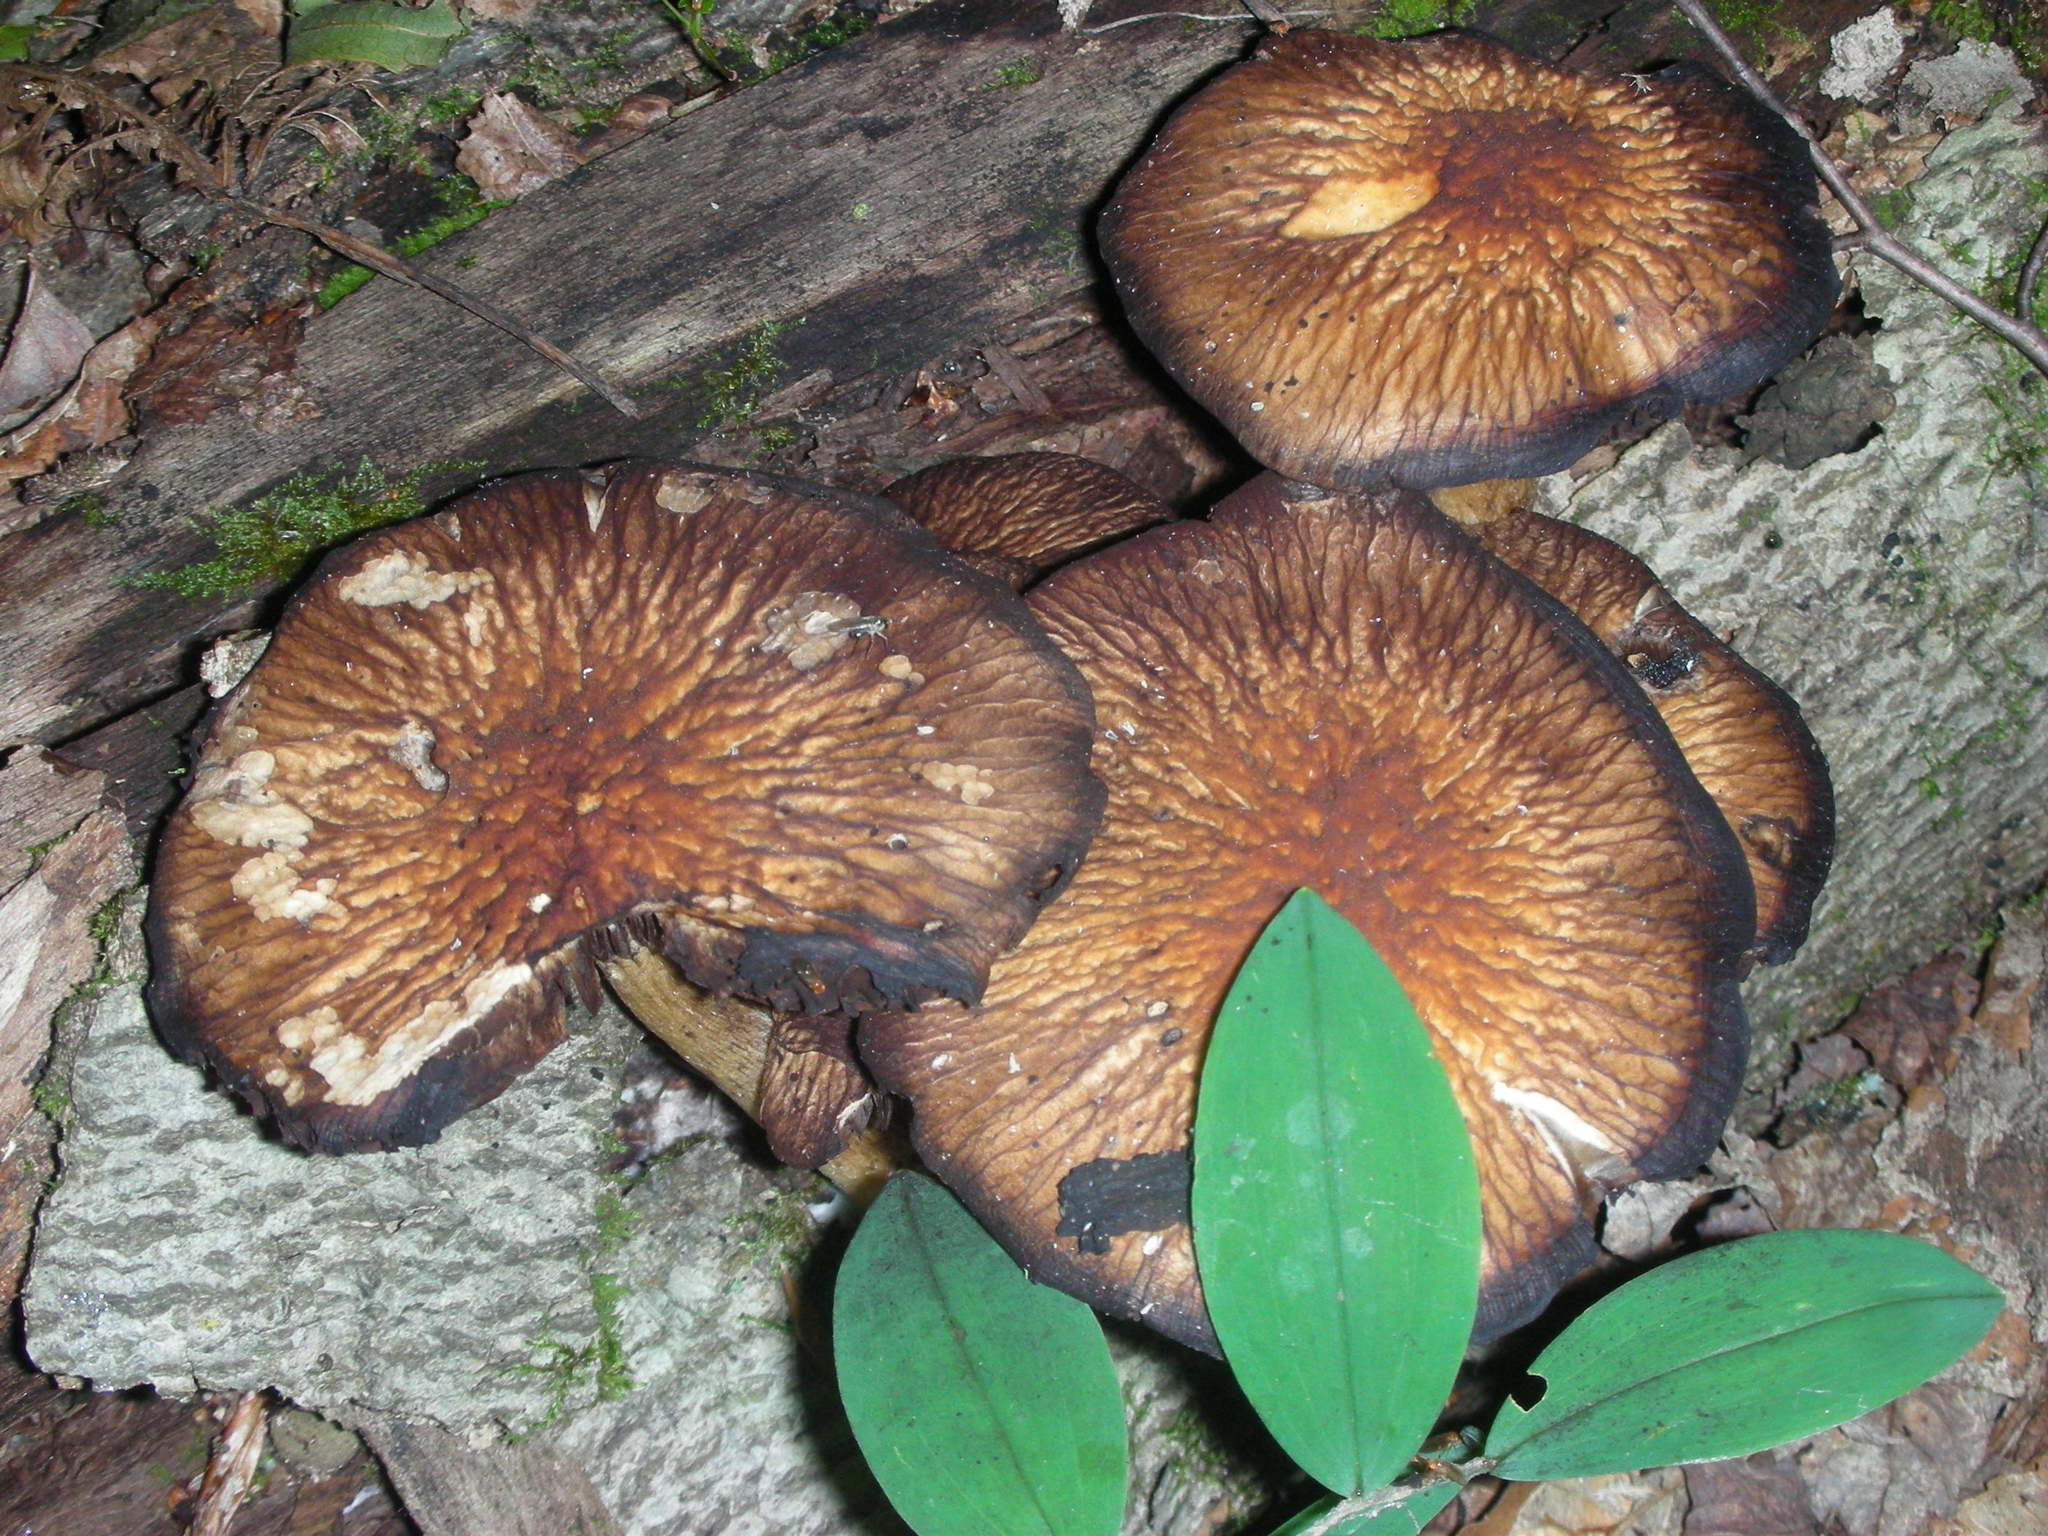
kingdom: Fungi
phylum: Basidiomycota
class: Agaricomycetes
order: Agaricales
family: Psathyrellaceae
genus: Typhrasa
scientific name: Typhrasa gossypina
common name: Wrinkled psathyrella
